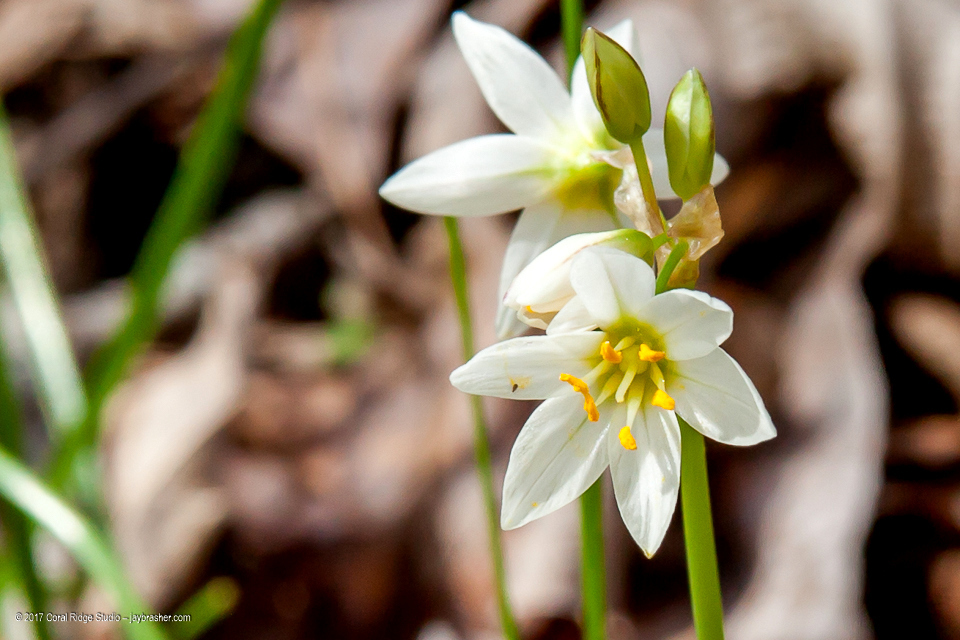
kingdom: Plantae
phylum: Tracheophyta
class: Liliopsida
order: Asparagales
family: Amaryllidaceae
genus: Nothoscordum
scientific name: Nothoscordum bivalve
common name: Crow-poison
